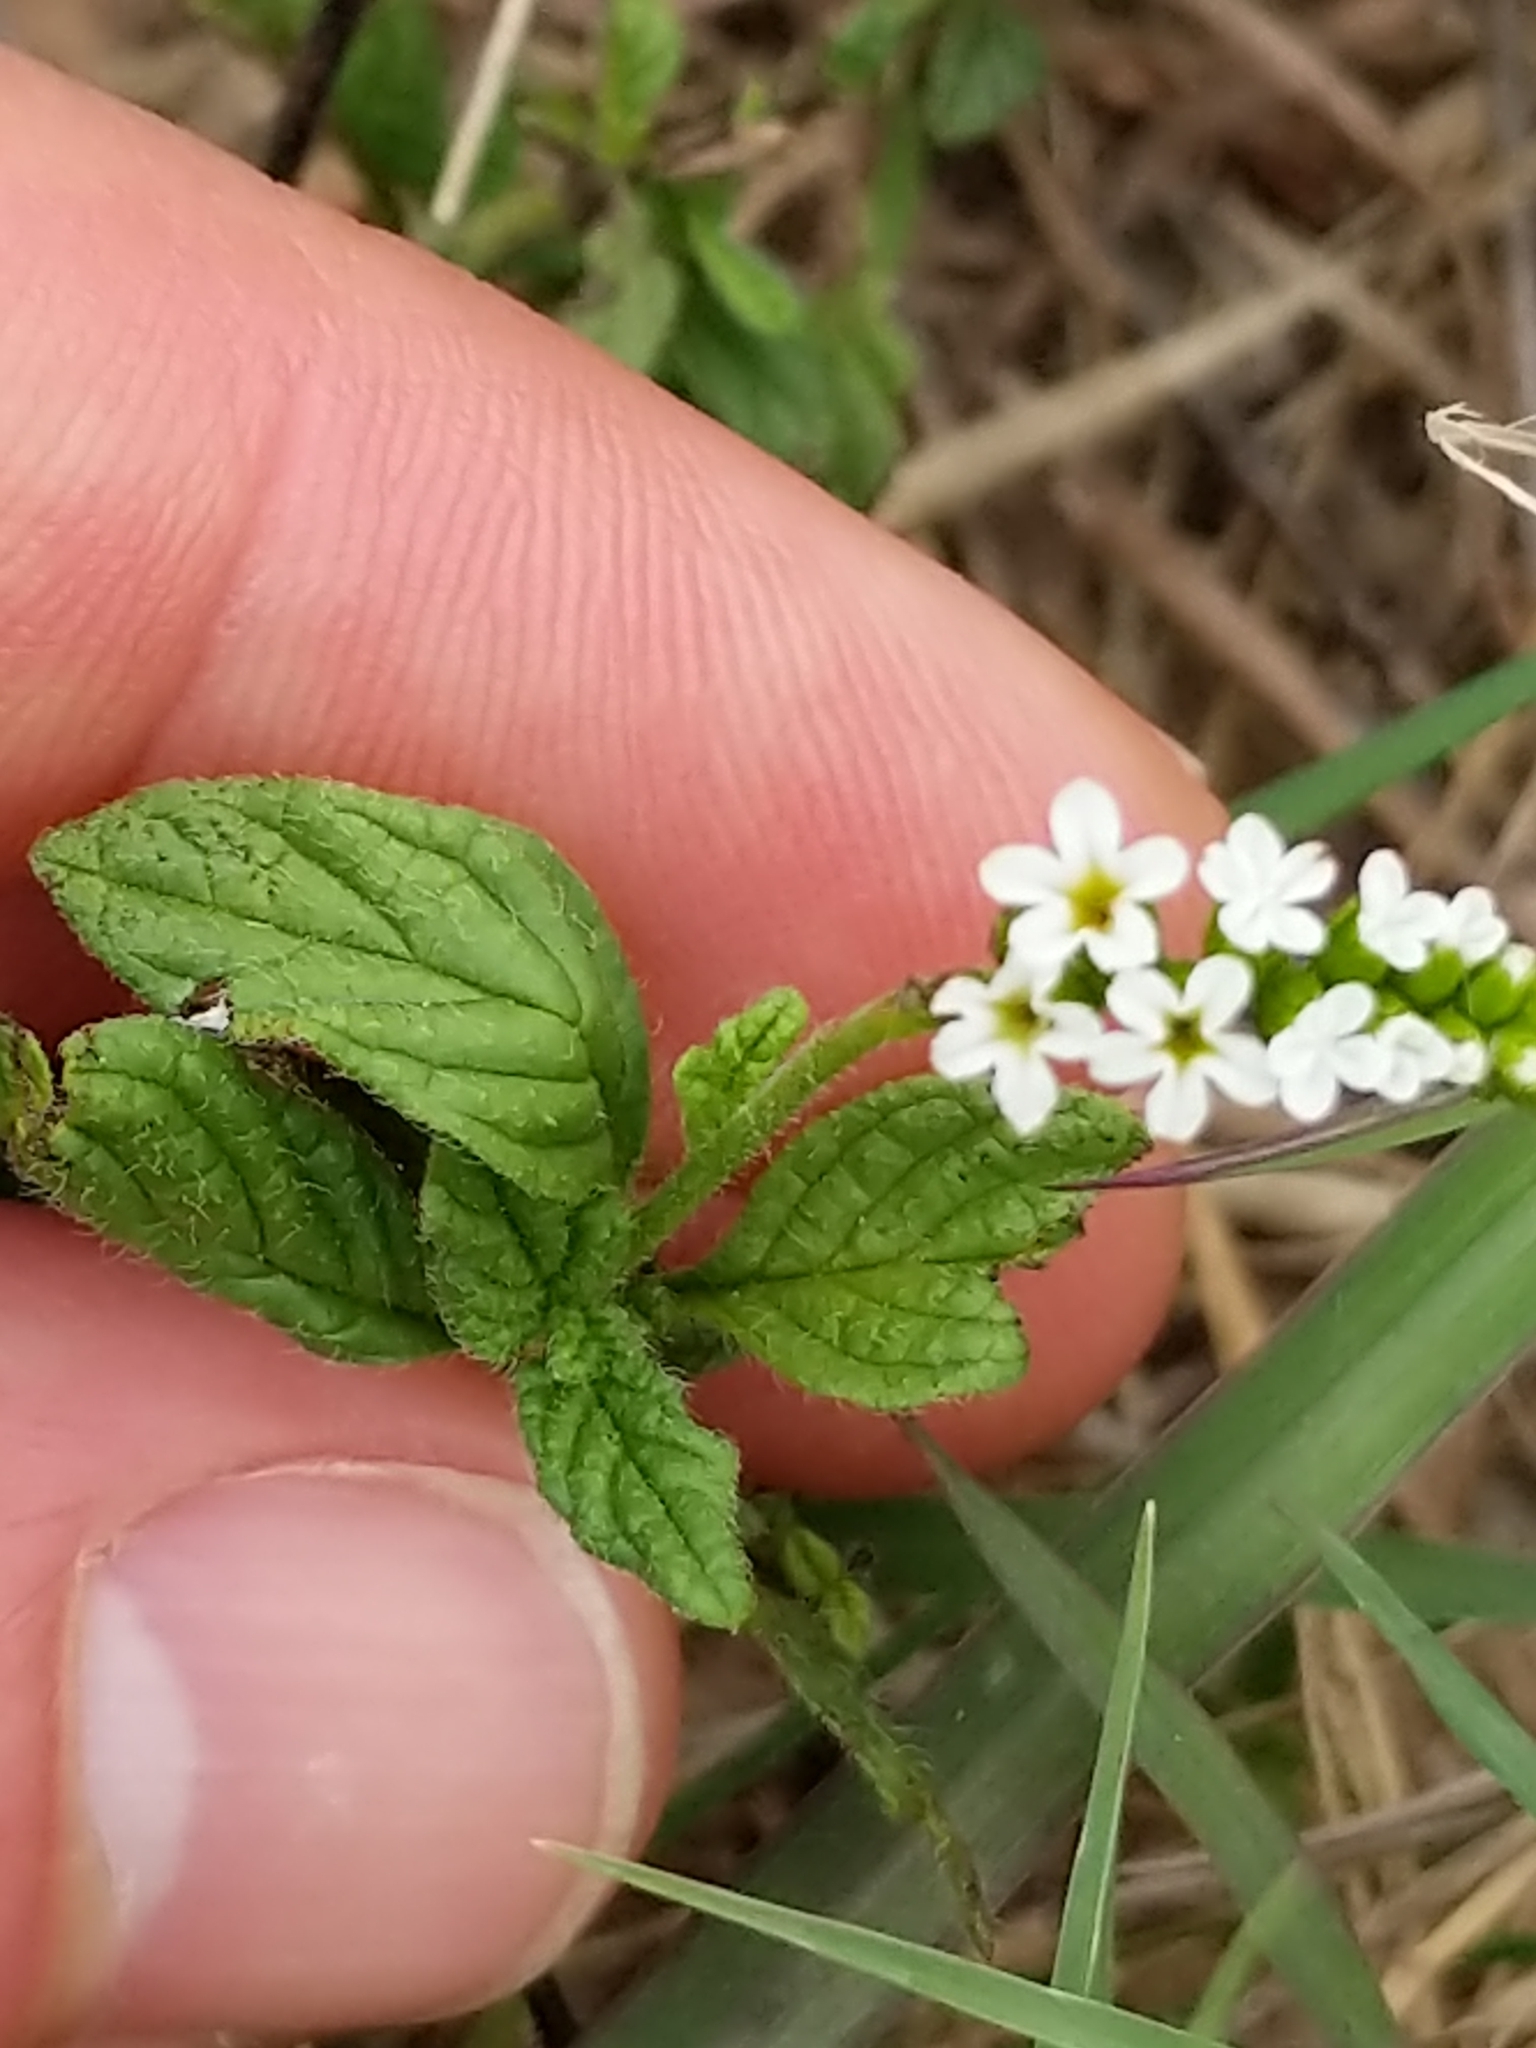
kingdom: Plantae
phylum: Tracheophyta
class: Magnoliopsida
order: Boraginales
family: Heliotropiaceae
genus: Heliotropium
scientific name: Heliotropium angiospermum
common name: Eye bright
